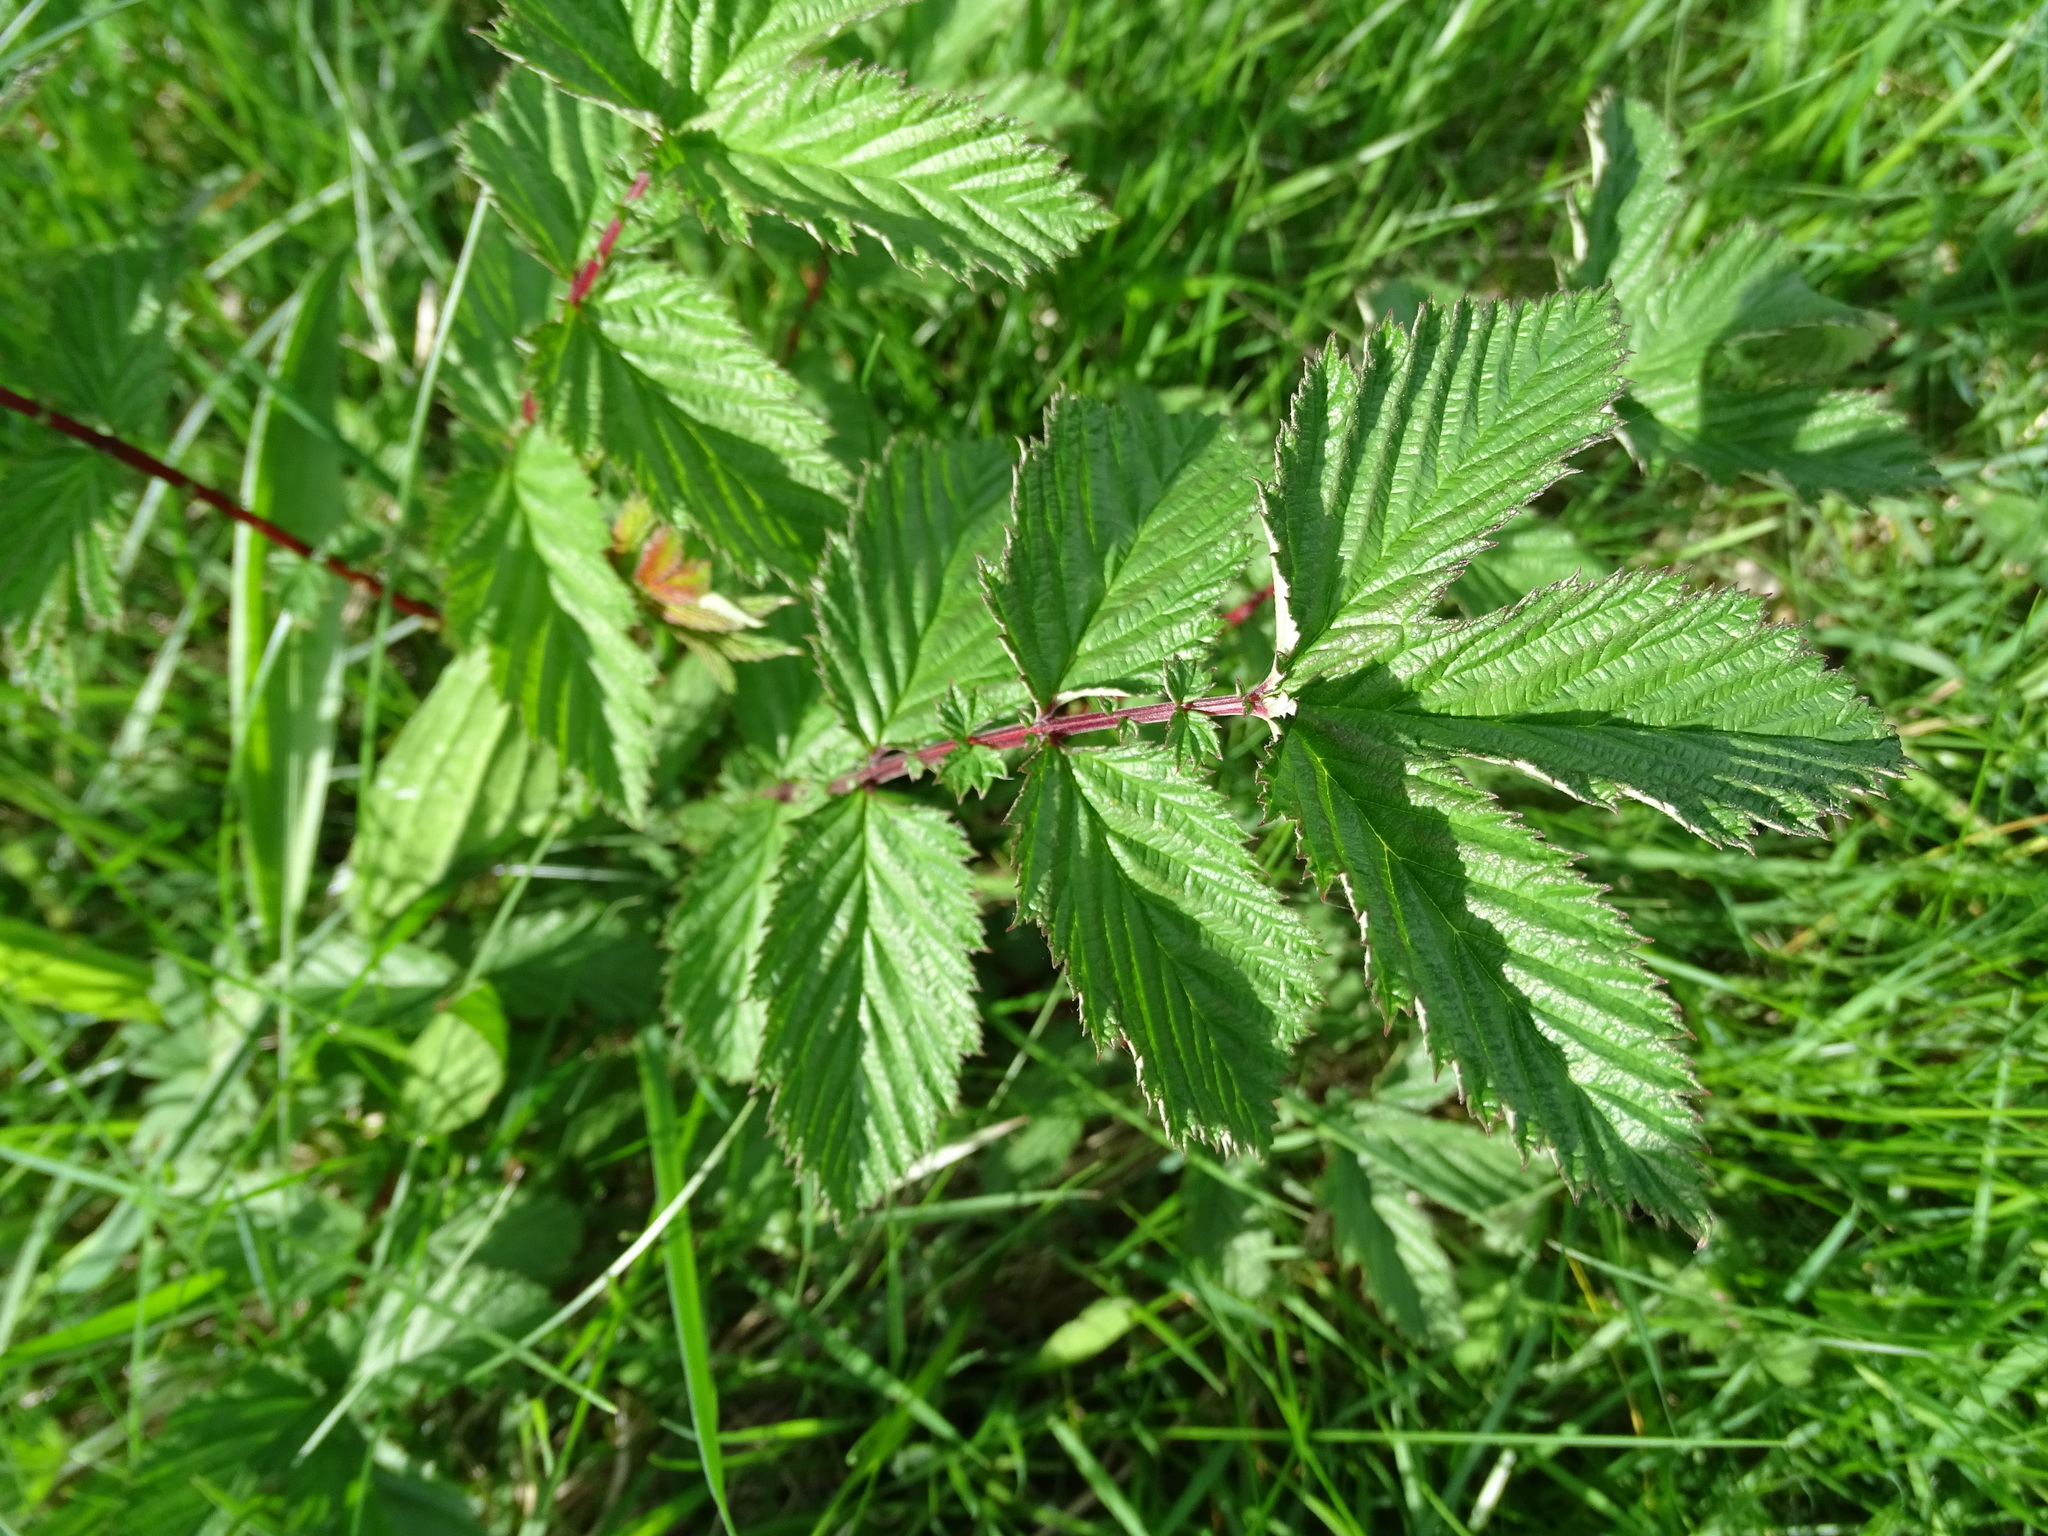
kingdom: Plantae
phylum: Tracheophyta
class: Magnoliopsida
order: Rosales
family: Rosaceae
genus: Filipendula
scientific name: Filipendula ulmaria
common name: Meadowsweet
